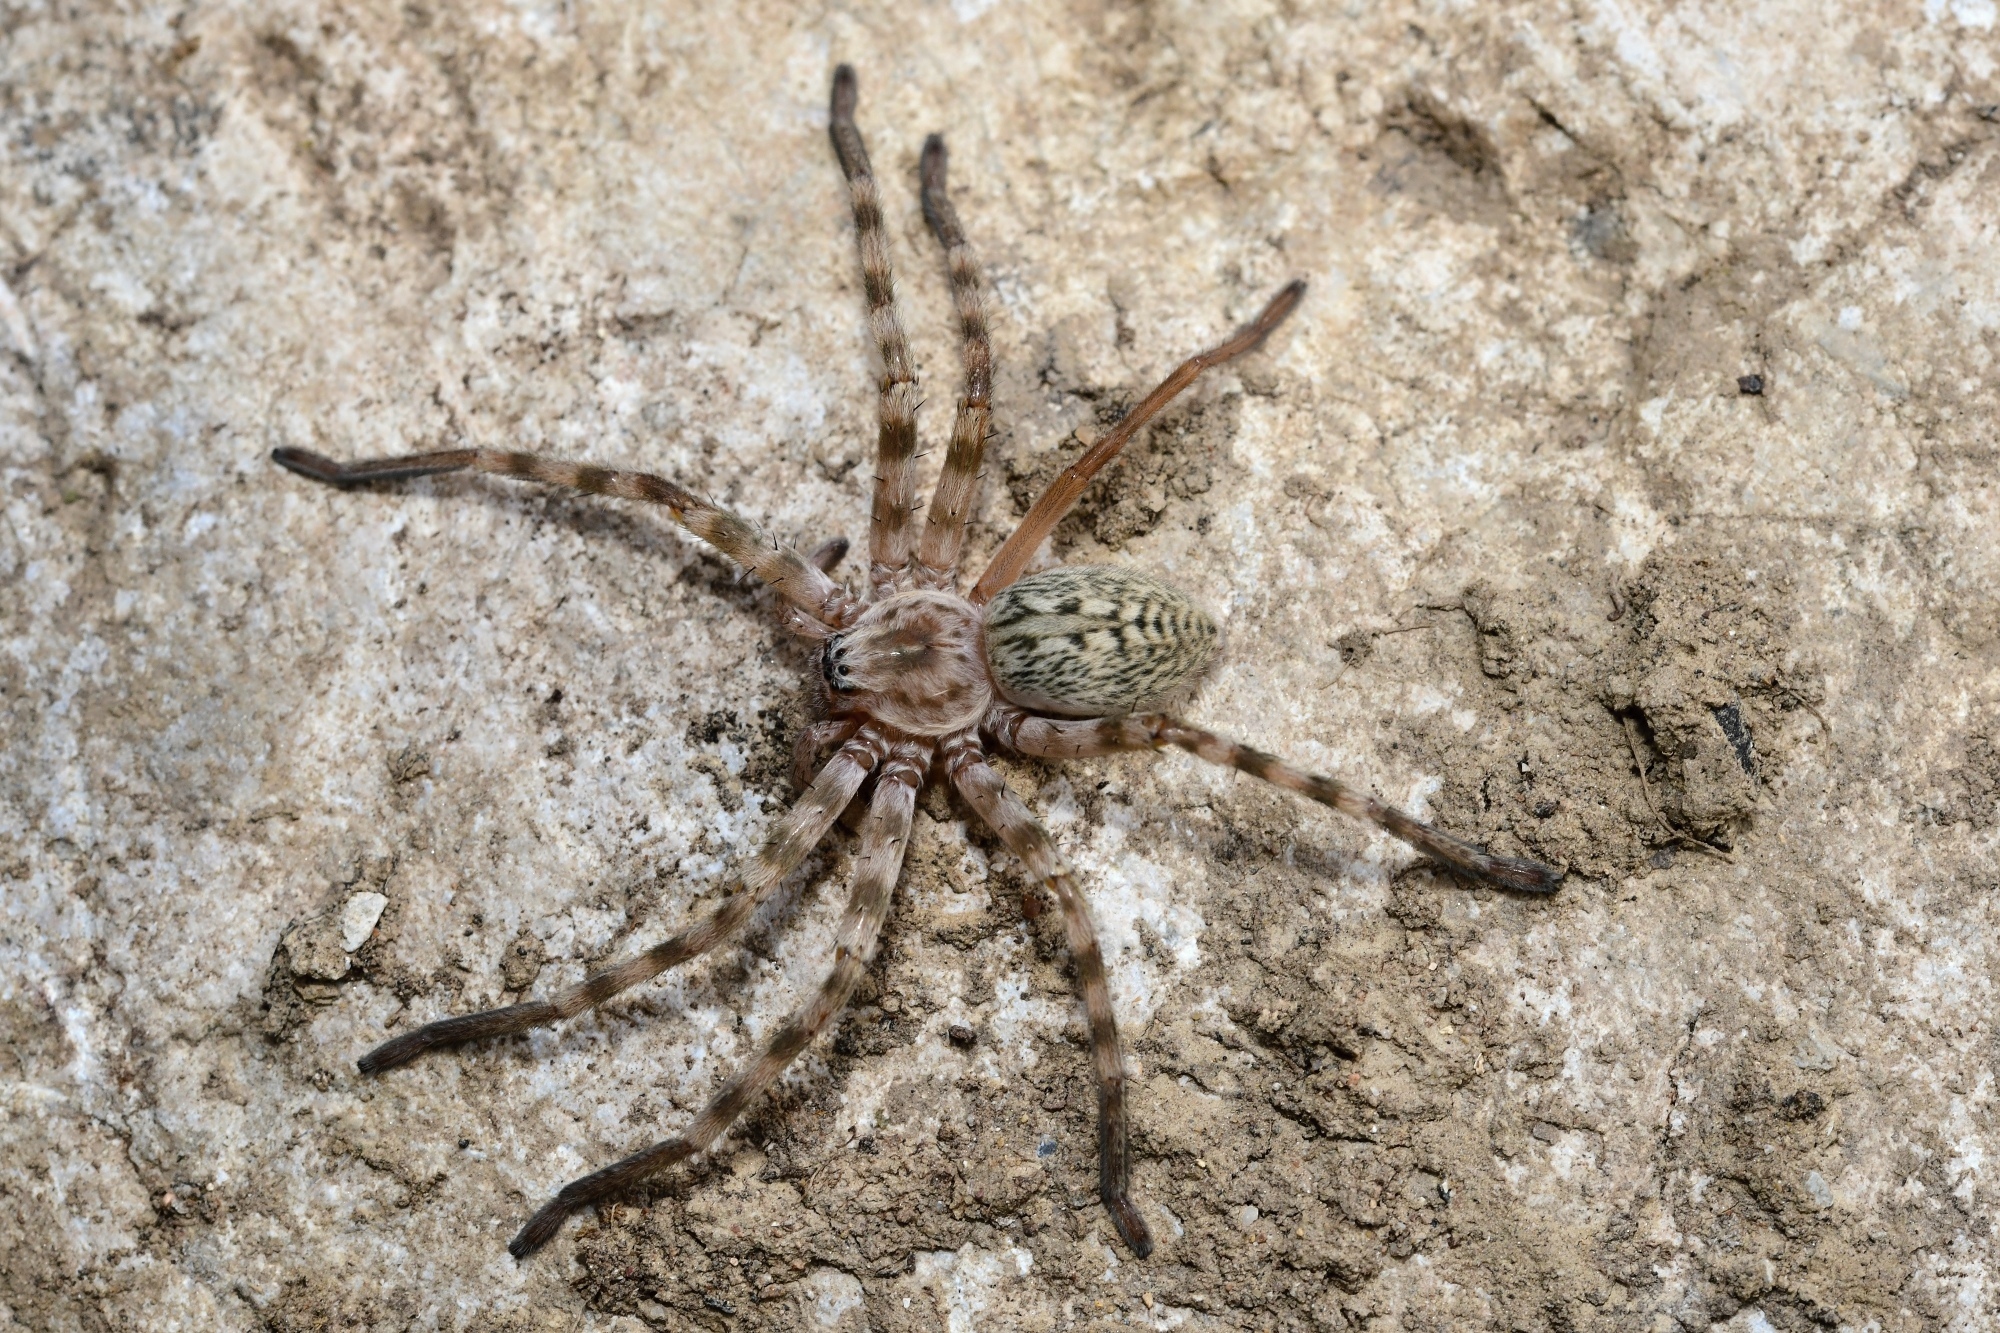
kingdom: Animalia
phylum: Arthropoda
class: Arachnida
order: Araneae
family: Sparassidae
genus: Eusparassus
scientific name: Eusparassus walckenaeri
